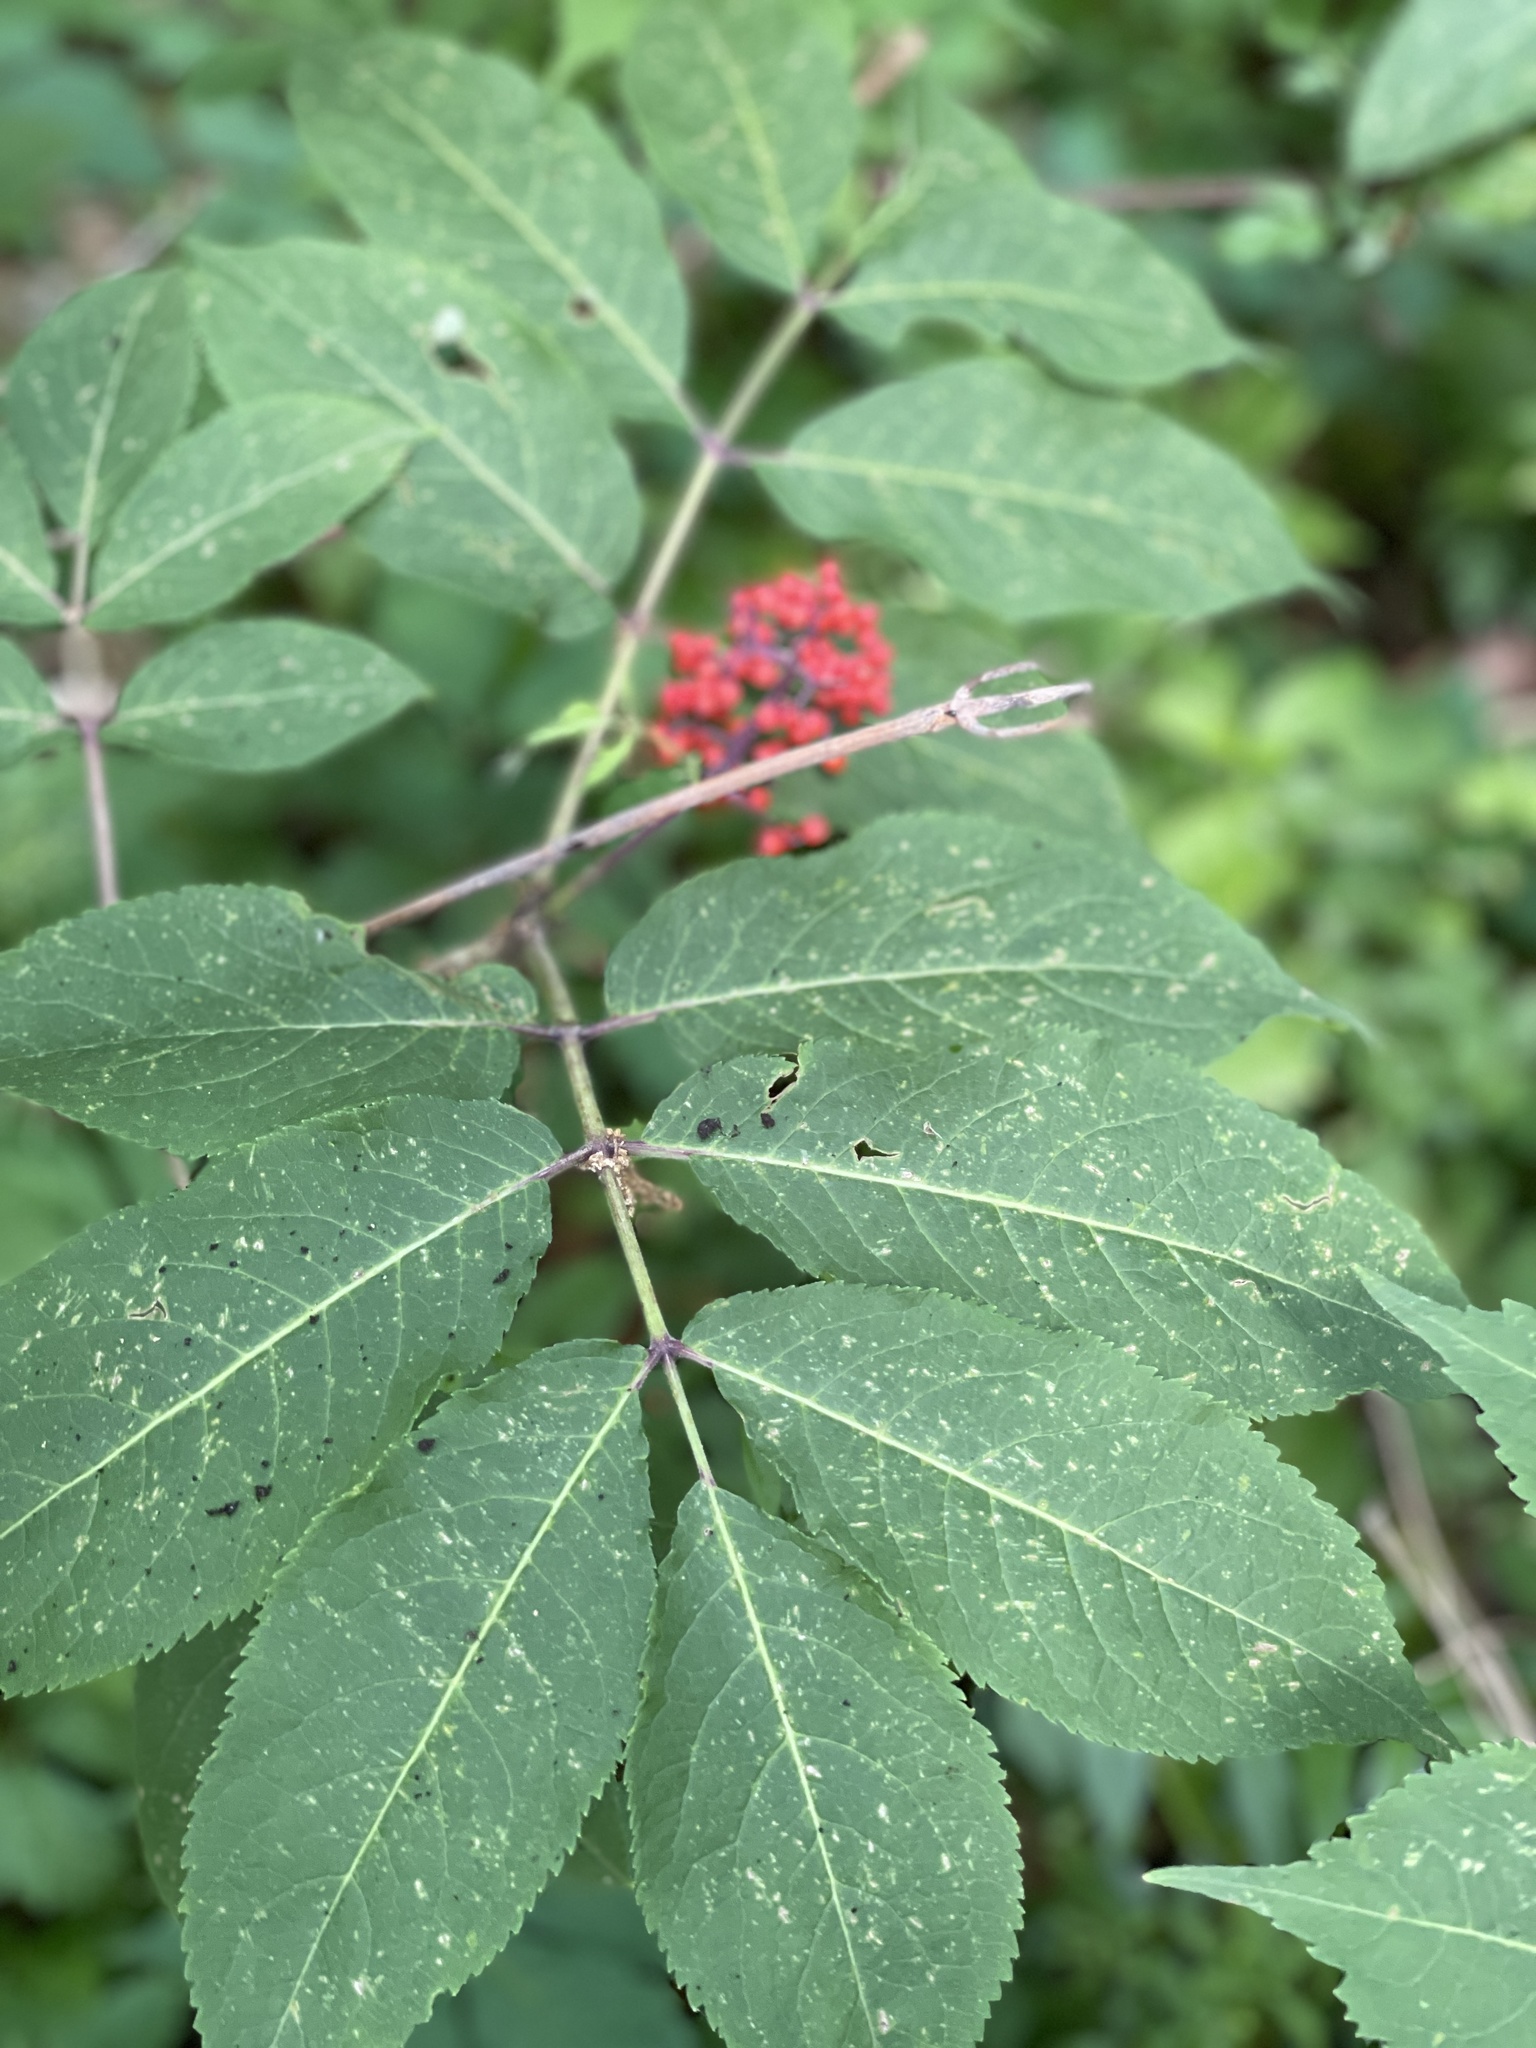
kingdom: Plantae
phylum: Tracheophyta
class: Magnoliopsida
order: Dipsacales
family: Viburnaceae
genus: Sambucus
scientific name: Sambucus racemosa
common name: Red-berried elder
